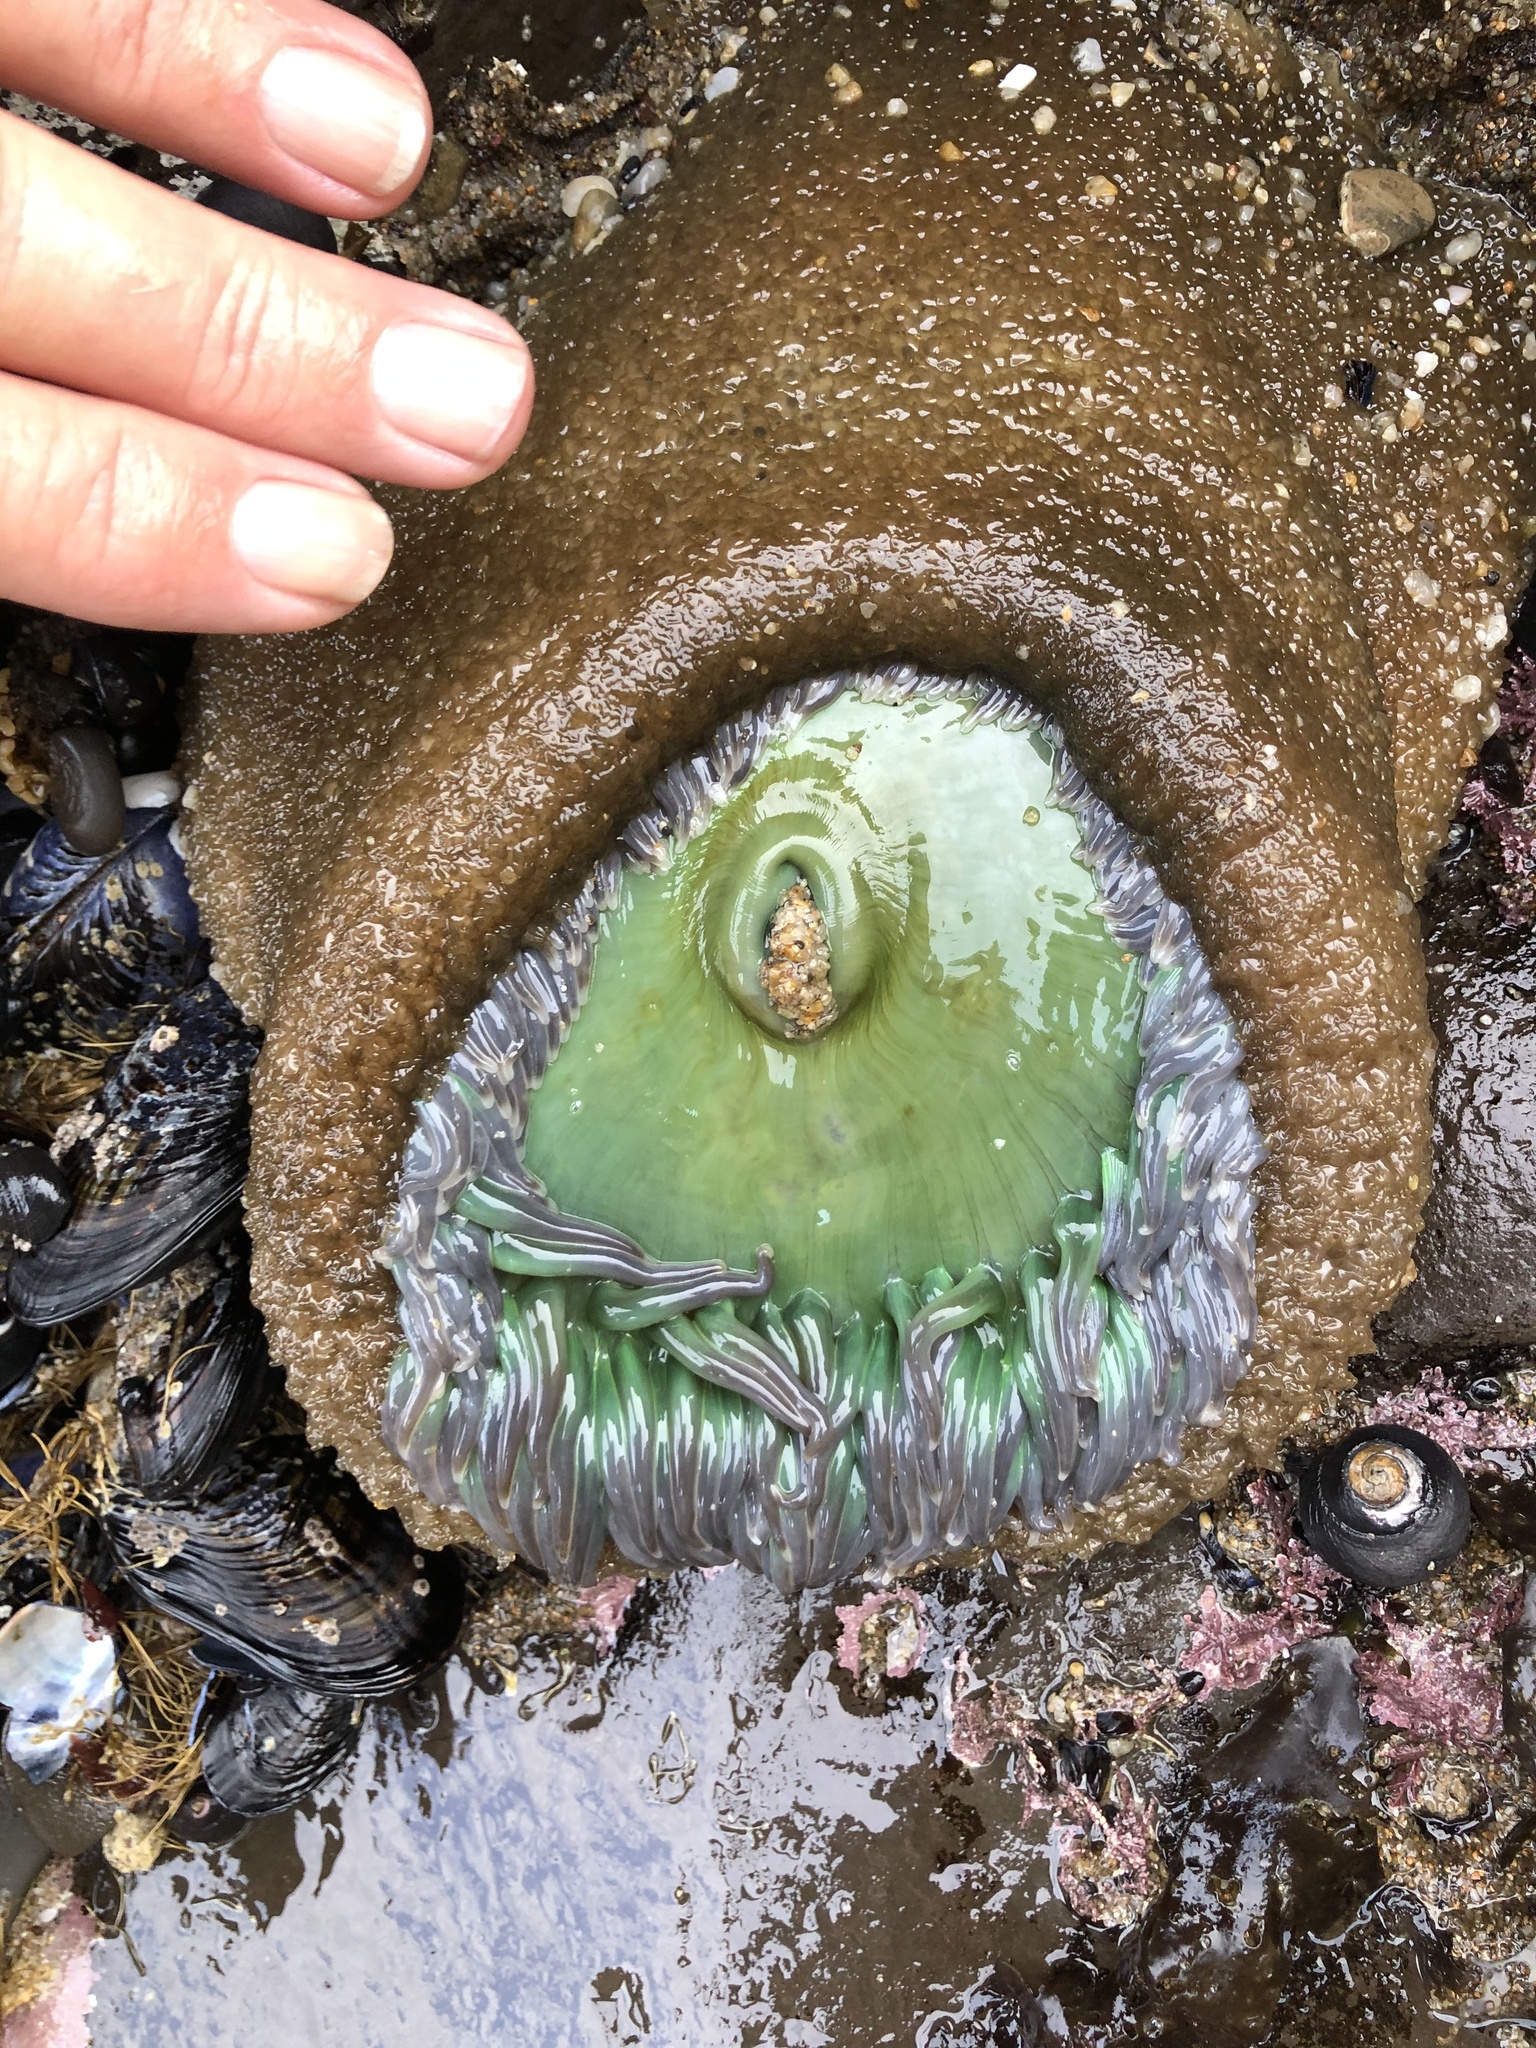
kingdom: Animalia
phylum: Cnidaria
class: Anthozoa
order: Actiniaria
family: Actiniidae
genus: Anthopleura
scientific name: Anthopleura xanthogrammica
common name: Giant green anemone
